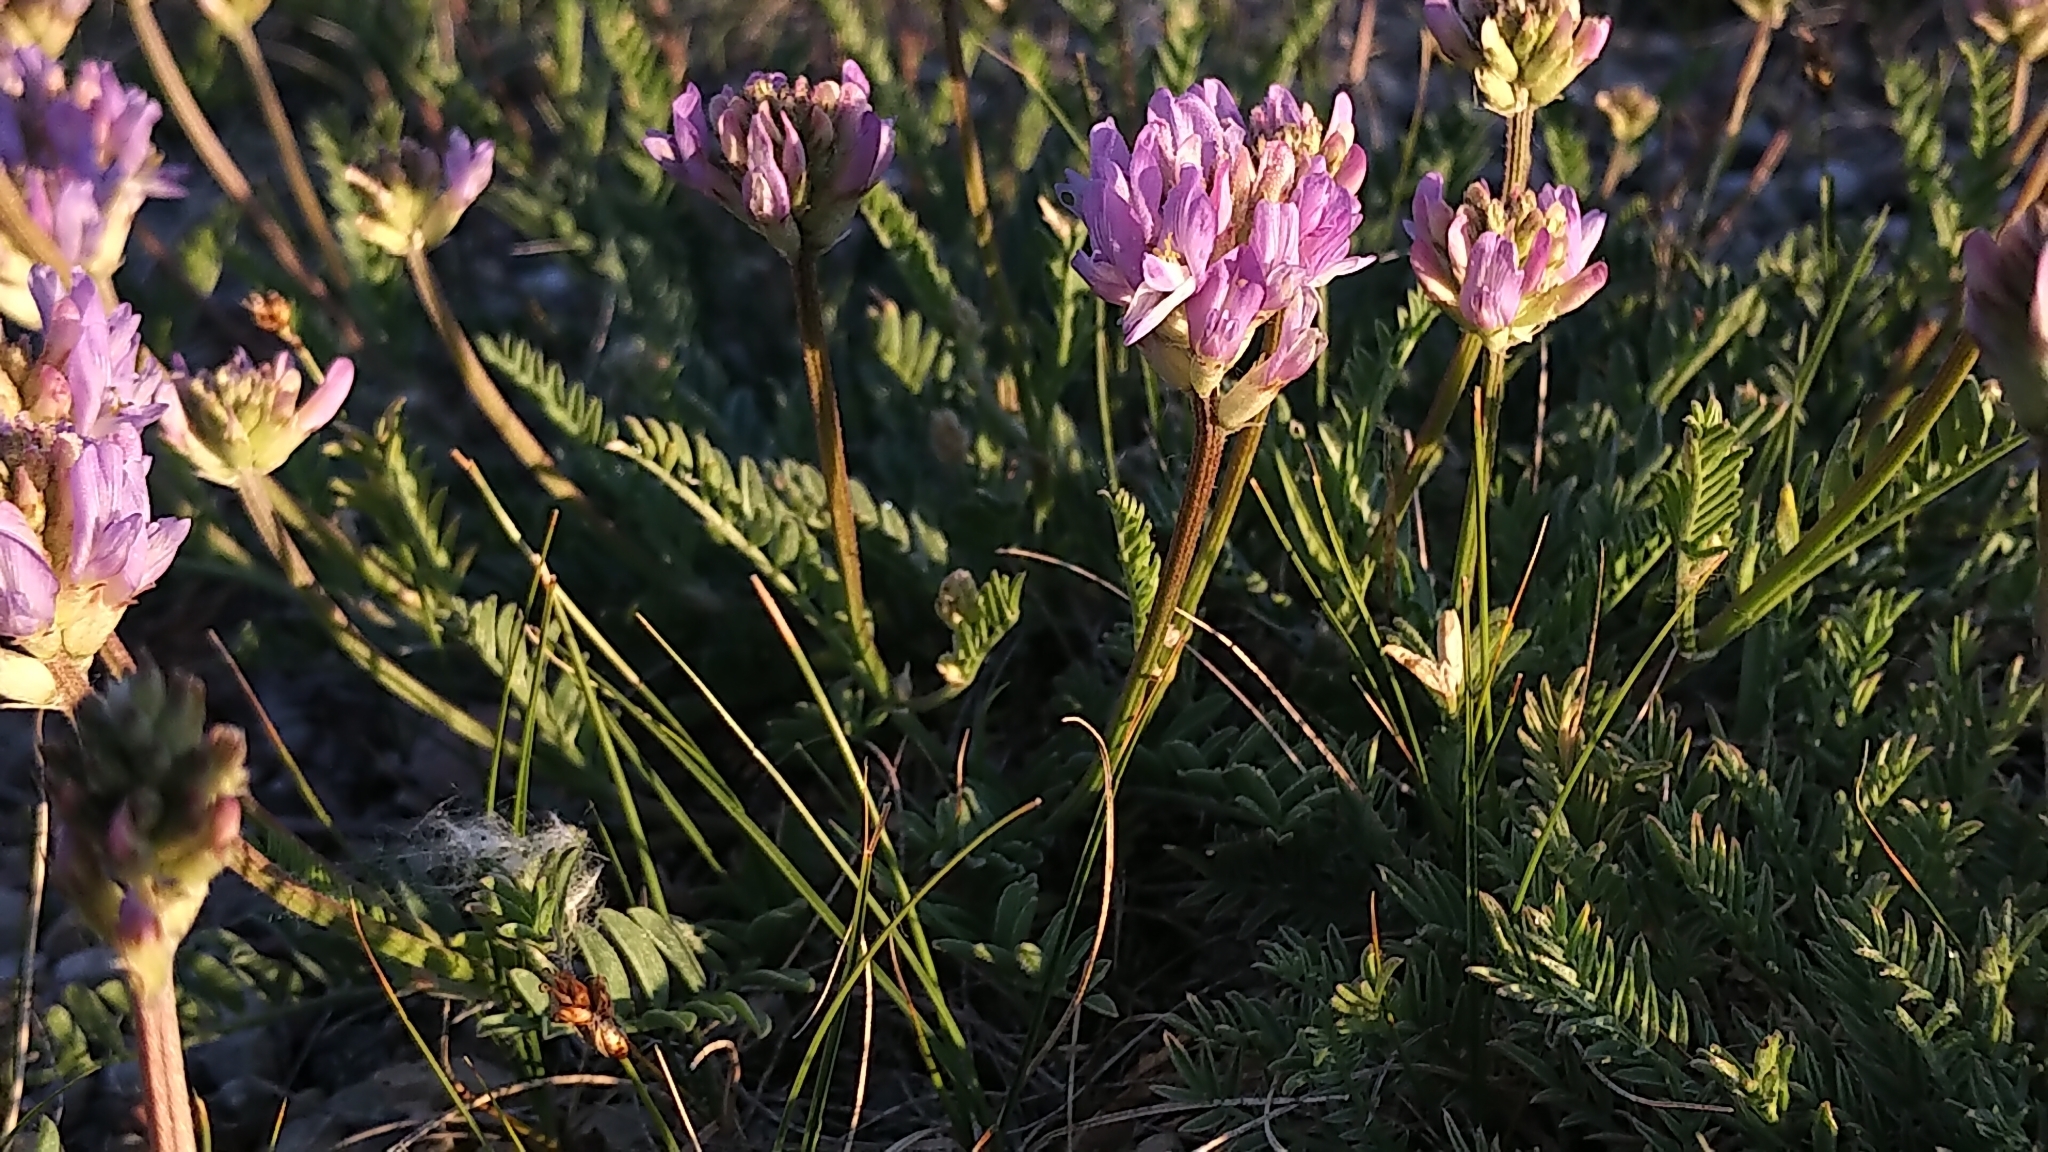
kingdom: Plantae
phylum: Tracheophyta
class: Magnoliopsida
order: Fabales
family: Fabaceae
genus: Astragalus
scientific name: Astragalus laxmannii
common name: Laxmann's milk-vetch
